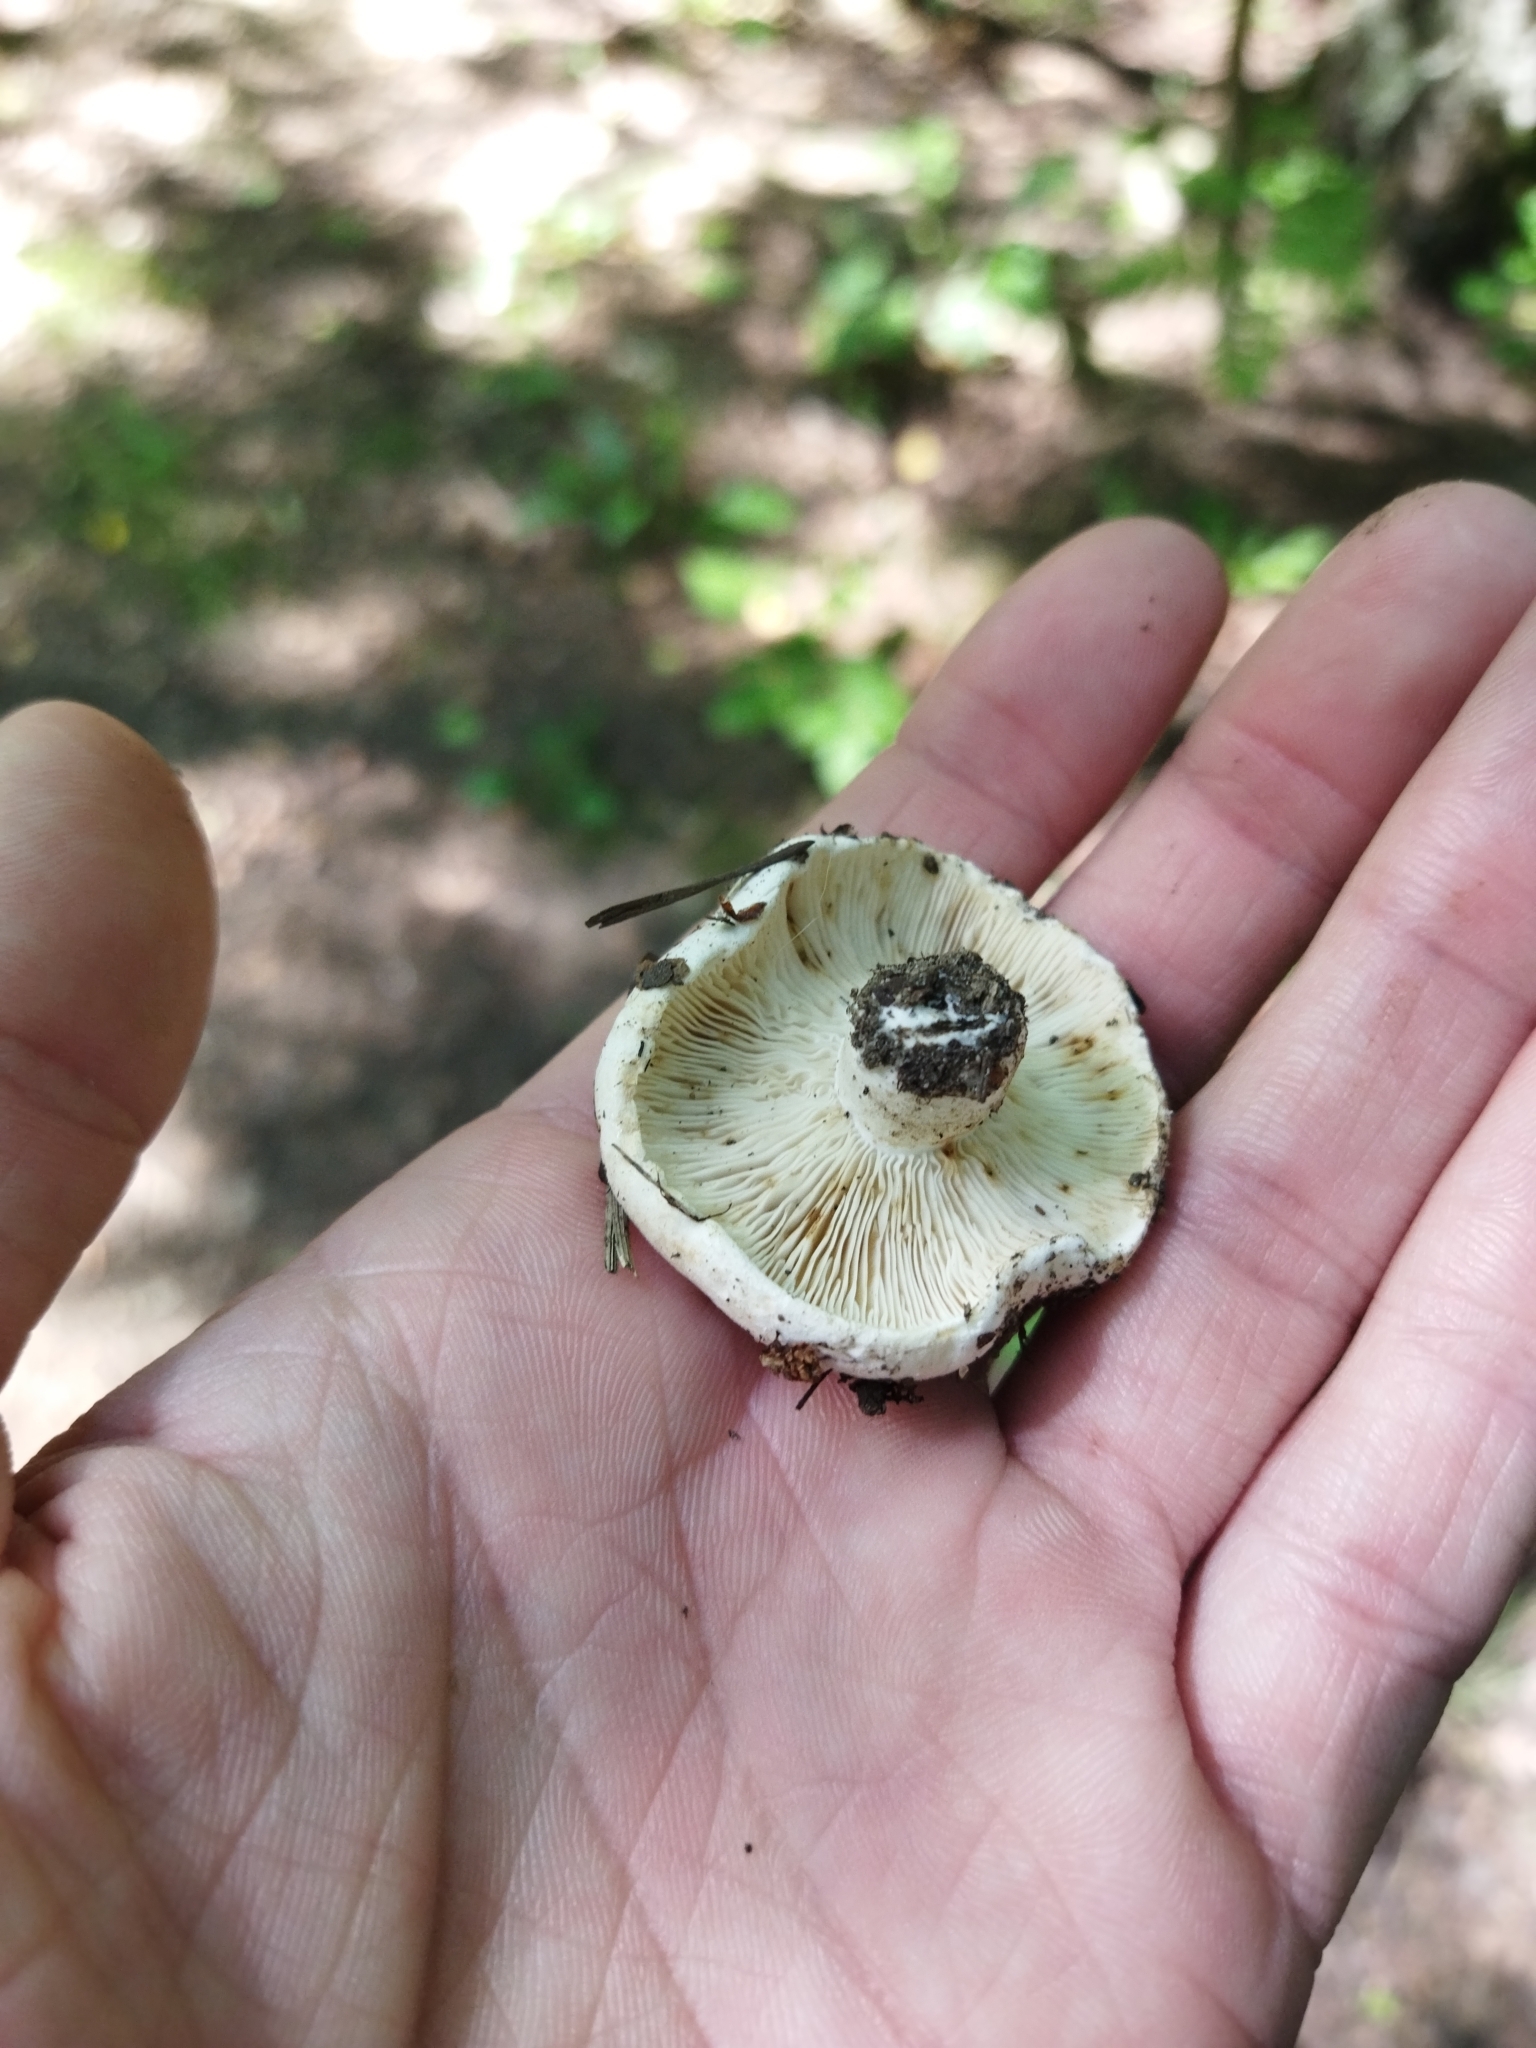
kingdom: Fungi
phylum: Basidiomycota
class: Agaricomycetes
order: Russulales
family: Russulaceae
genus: Russula
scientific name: Russula delica
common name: Milk white brittlegill
